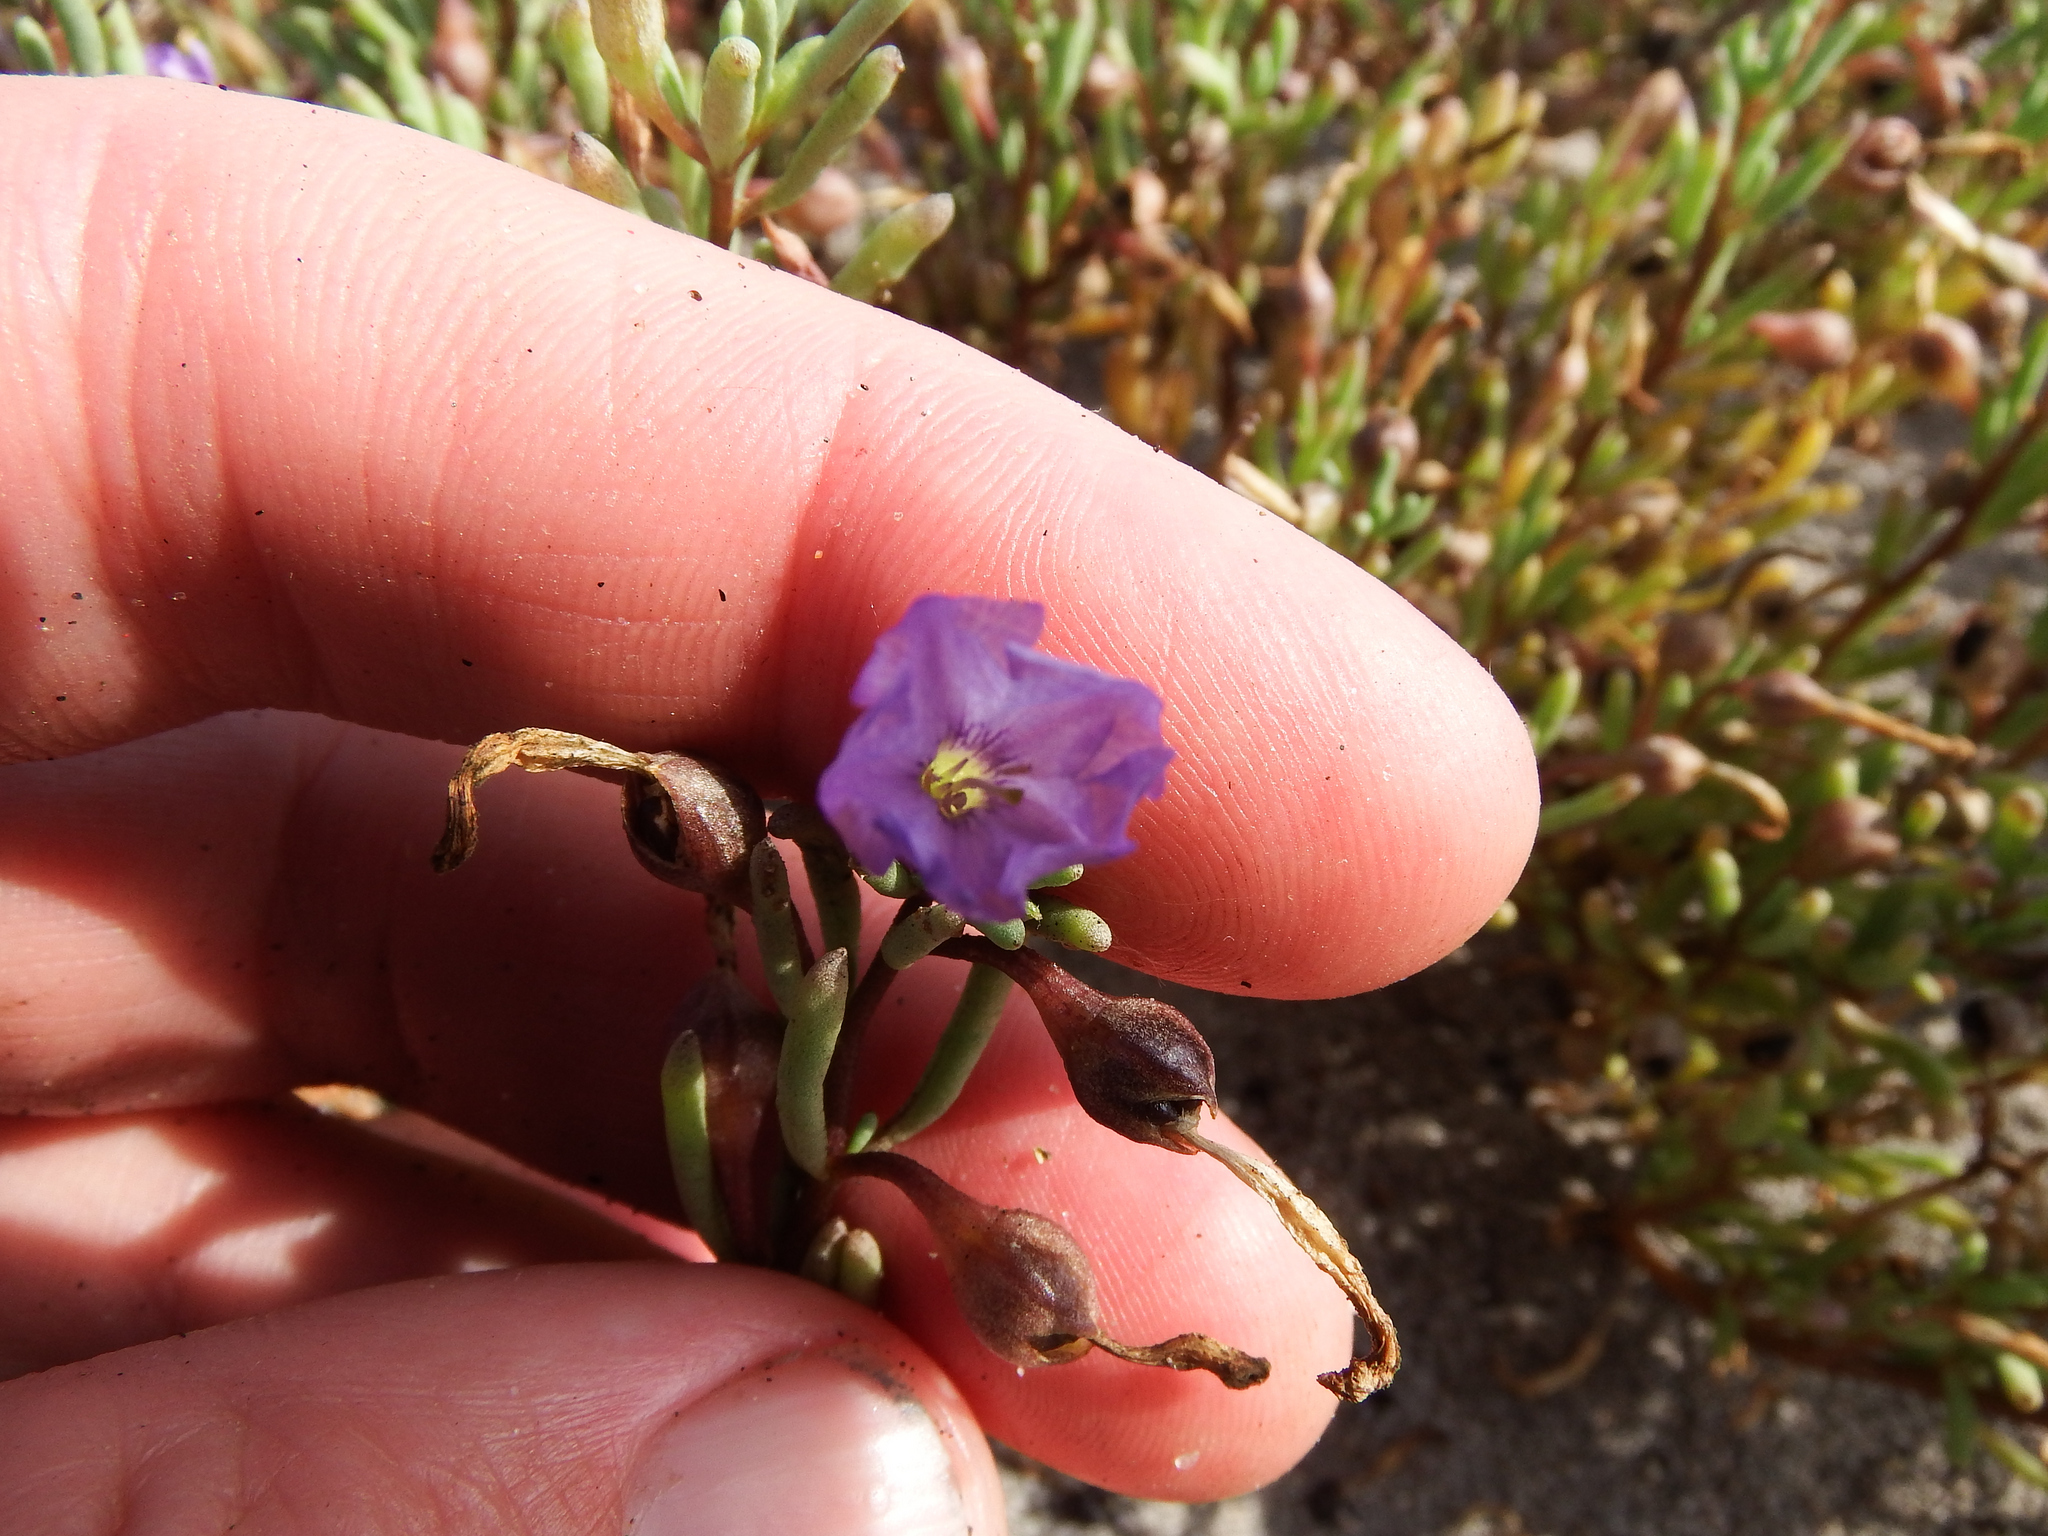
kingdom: Plantae
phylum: Tracheophyta
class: Magnoliopsida
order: Solanales
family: Solanaceae
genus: Nolana
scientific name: Nolana tarapacana
